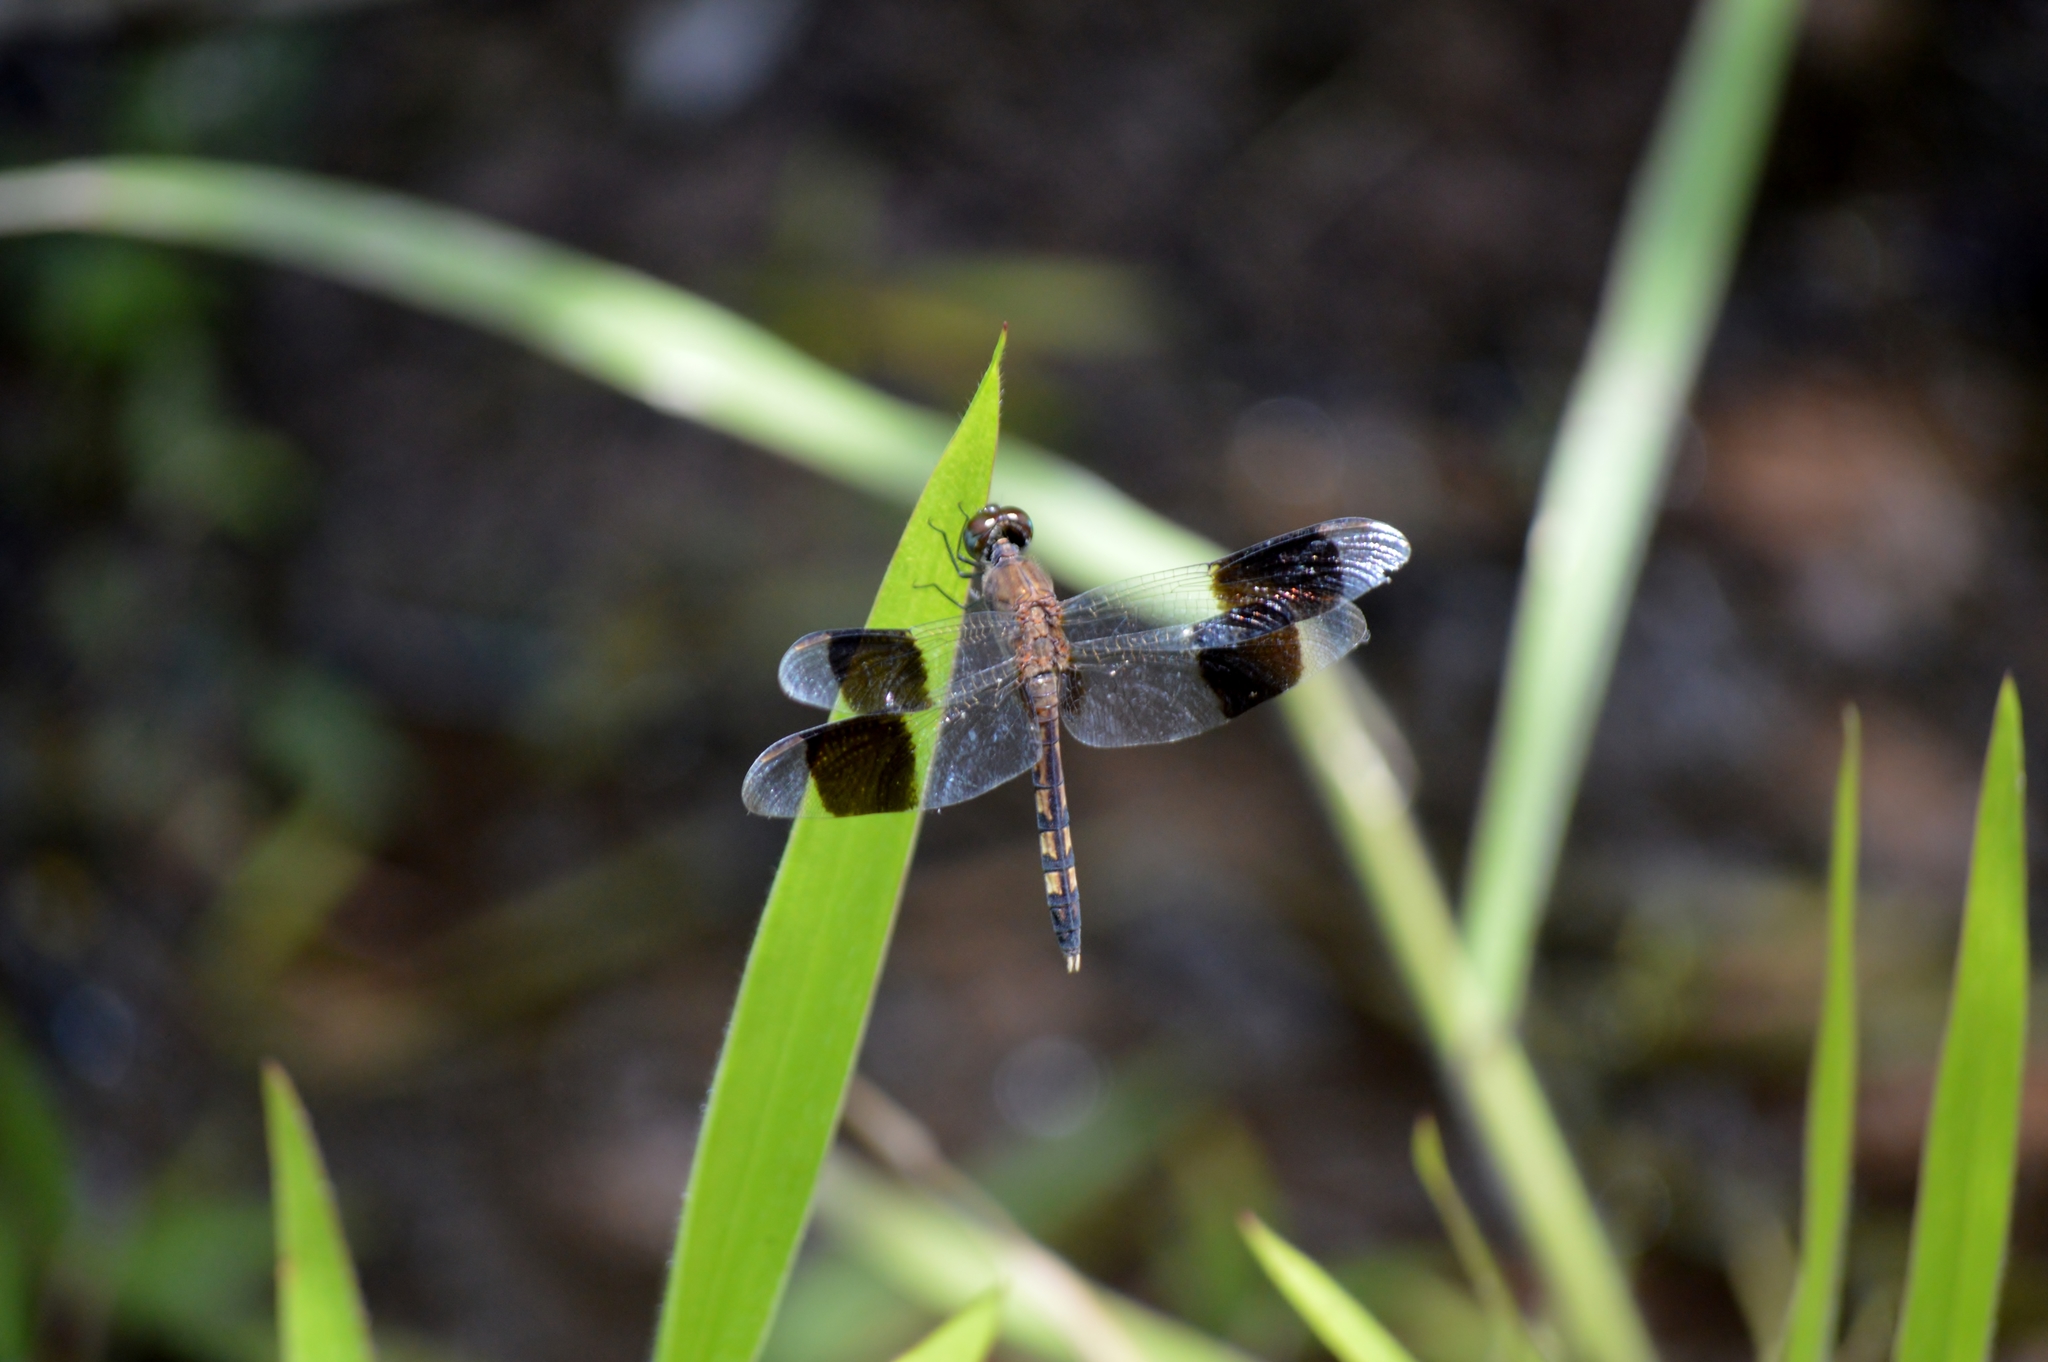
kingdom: Animalia
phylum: Arthropoda
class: Insecta
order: Odonata
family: Libellulidae
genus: Erythrodiplax
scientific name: Erythrodiplax umbrata
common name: Band-winged dragonlet
